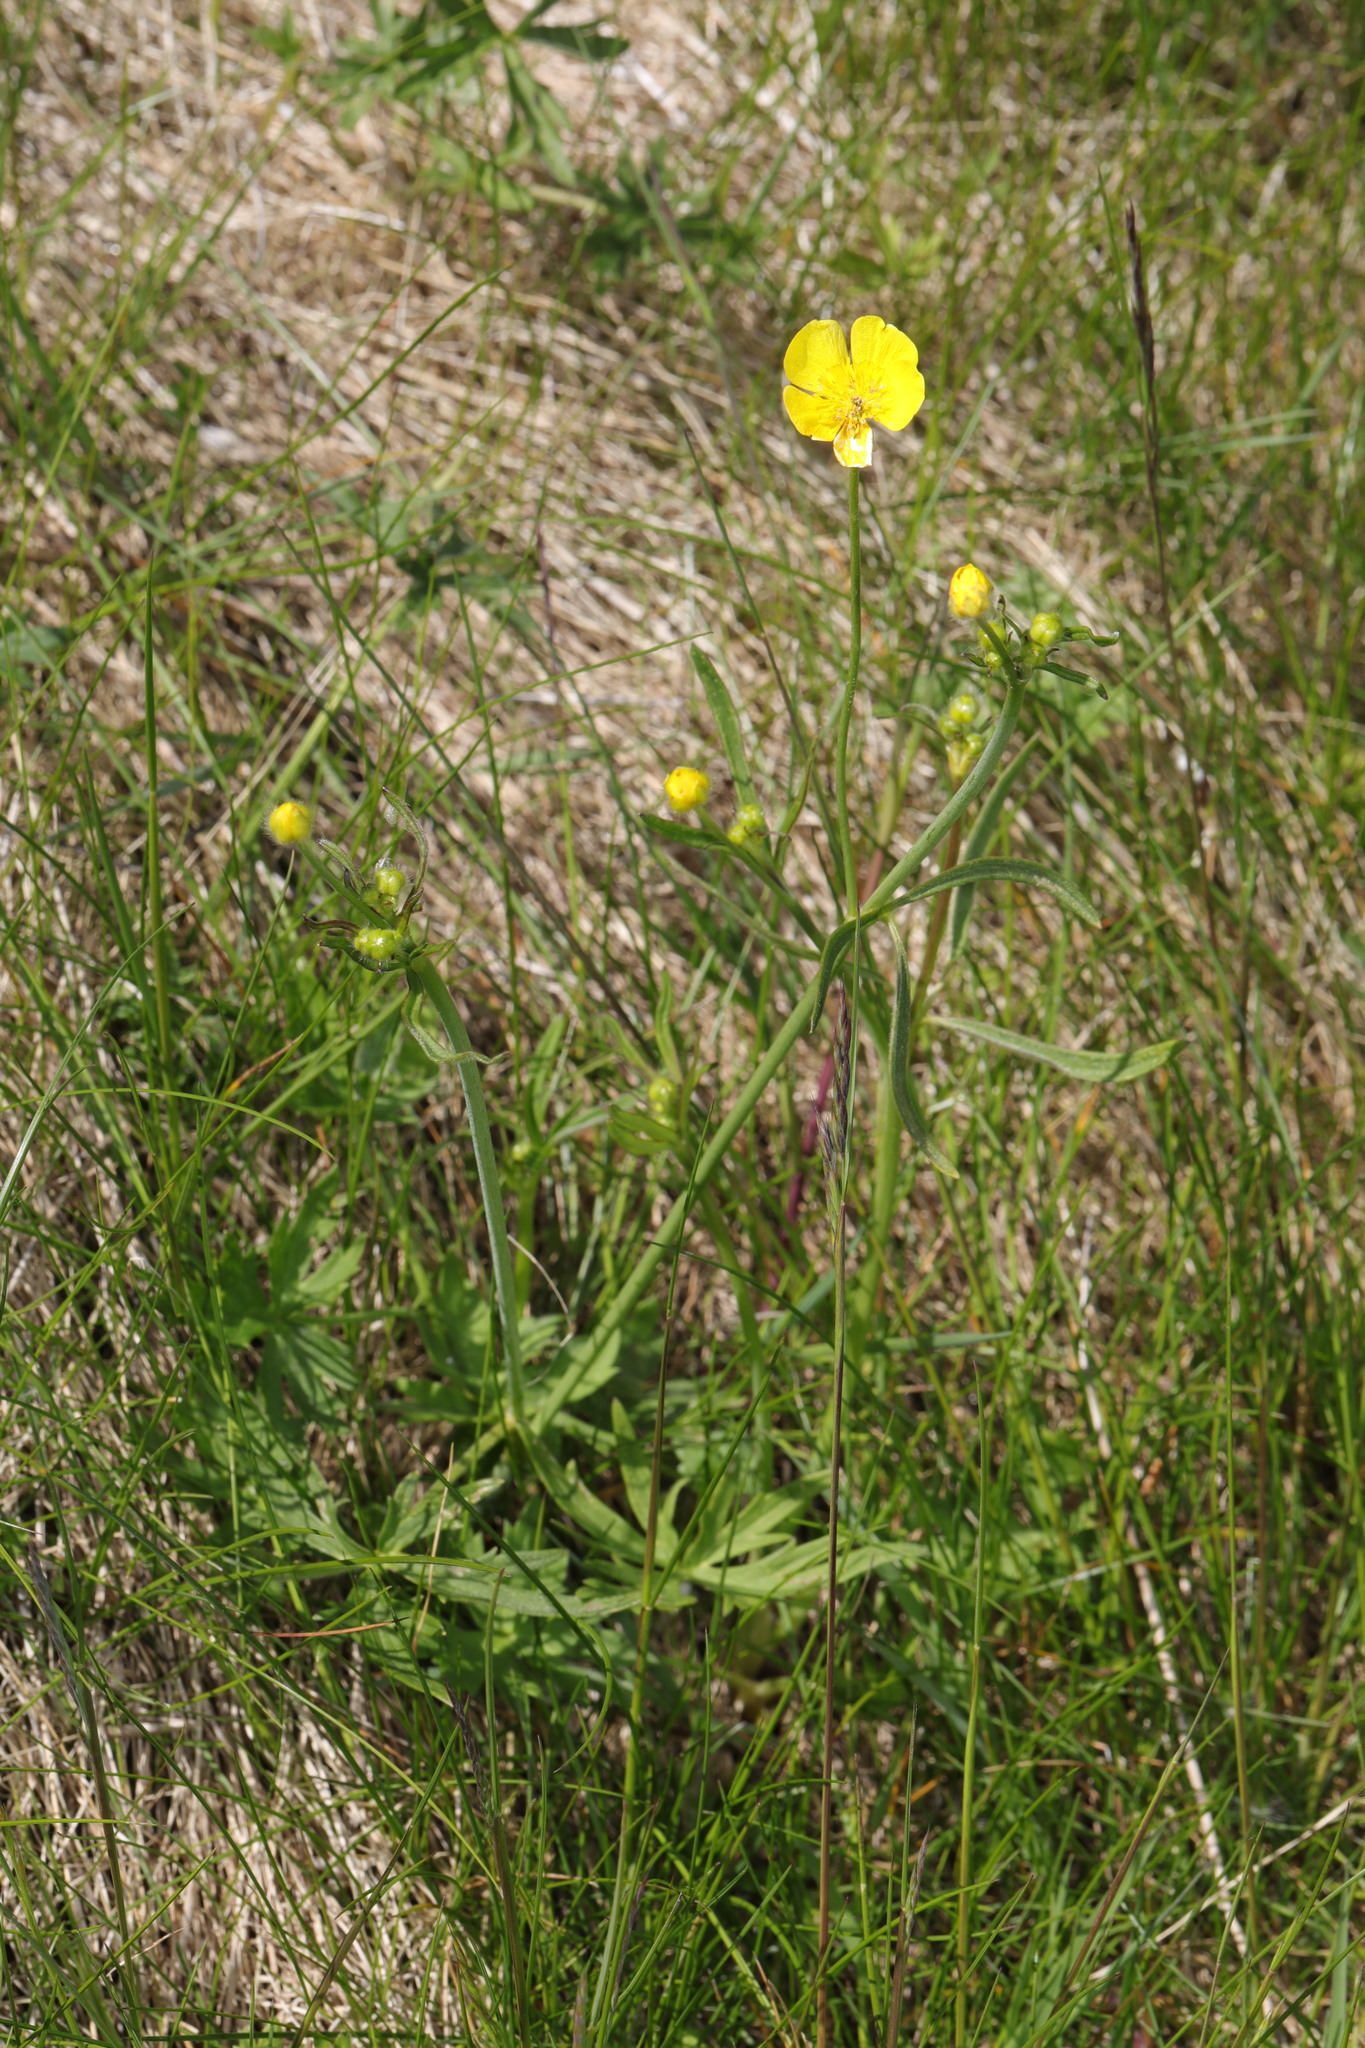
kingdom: Plantae
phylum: Tracheophyta
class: Magnoliopsida
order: Ranunculales
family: Ranunculaceae
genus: Ranunculus
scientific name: Ranunculus acris
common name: Meadow buttercup
